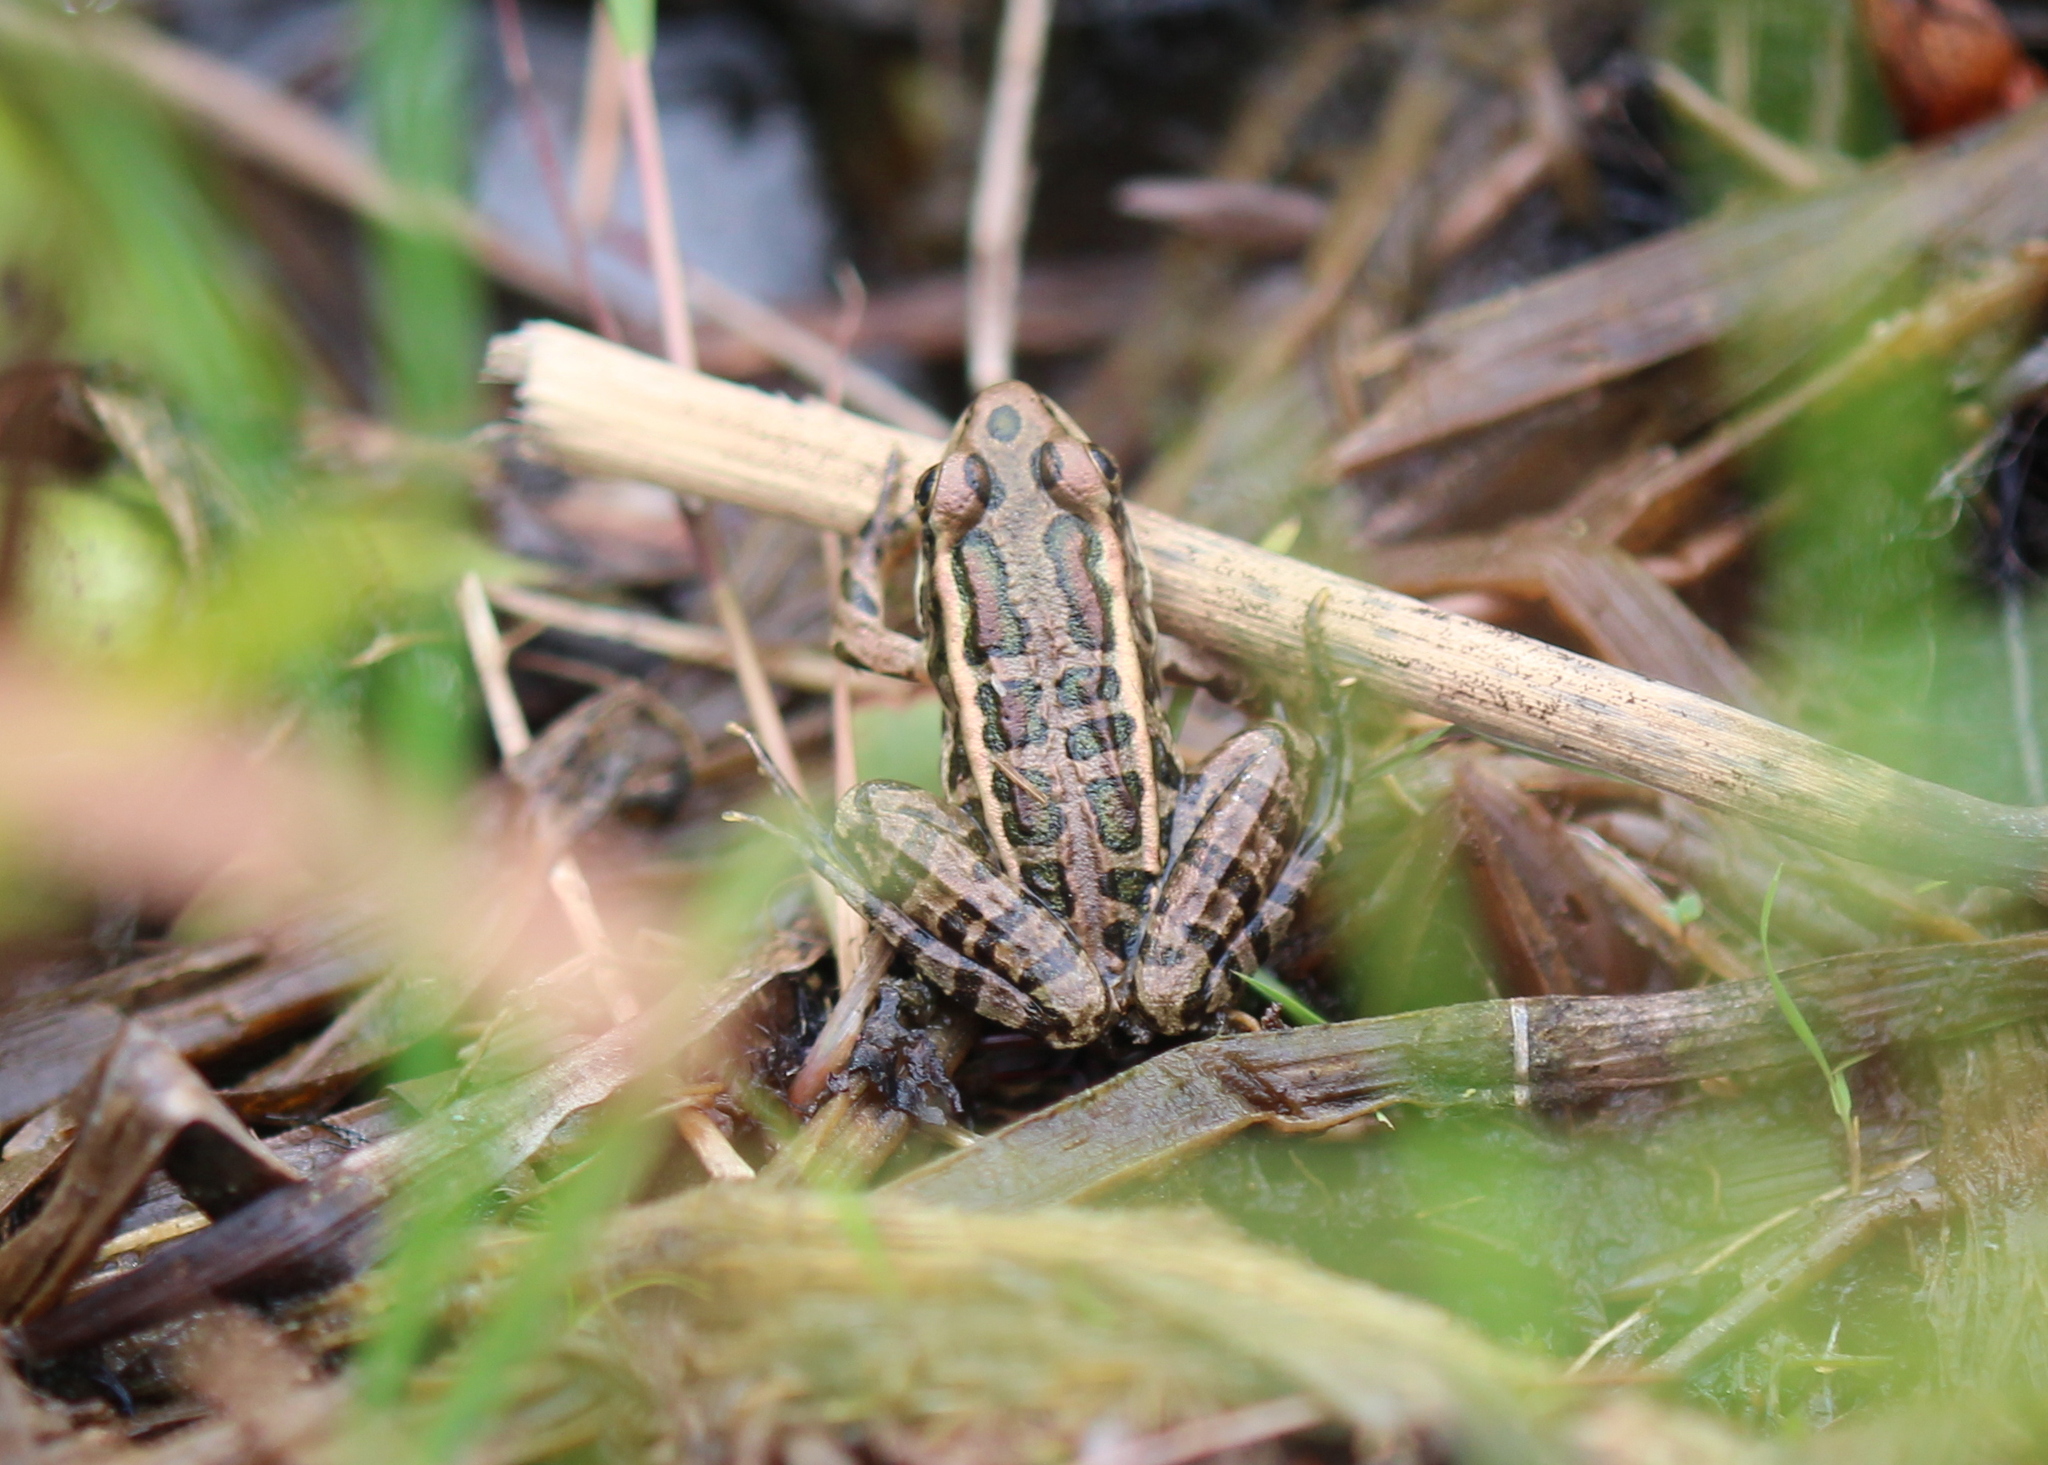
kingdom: Animalia
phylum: Chordata
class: Amphibia
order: Anura
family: Ranidae
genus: Lithobates
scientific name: Lithobates palustris
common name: Pickerel frog
